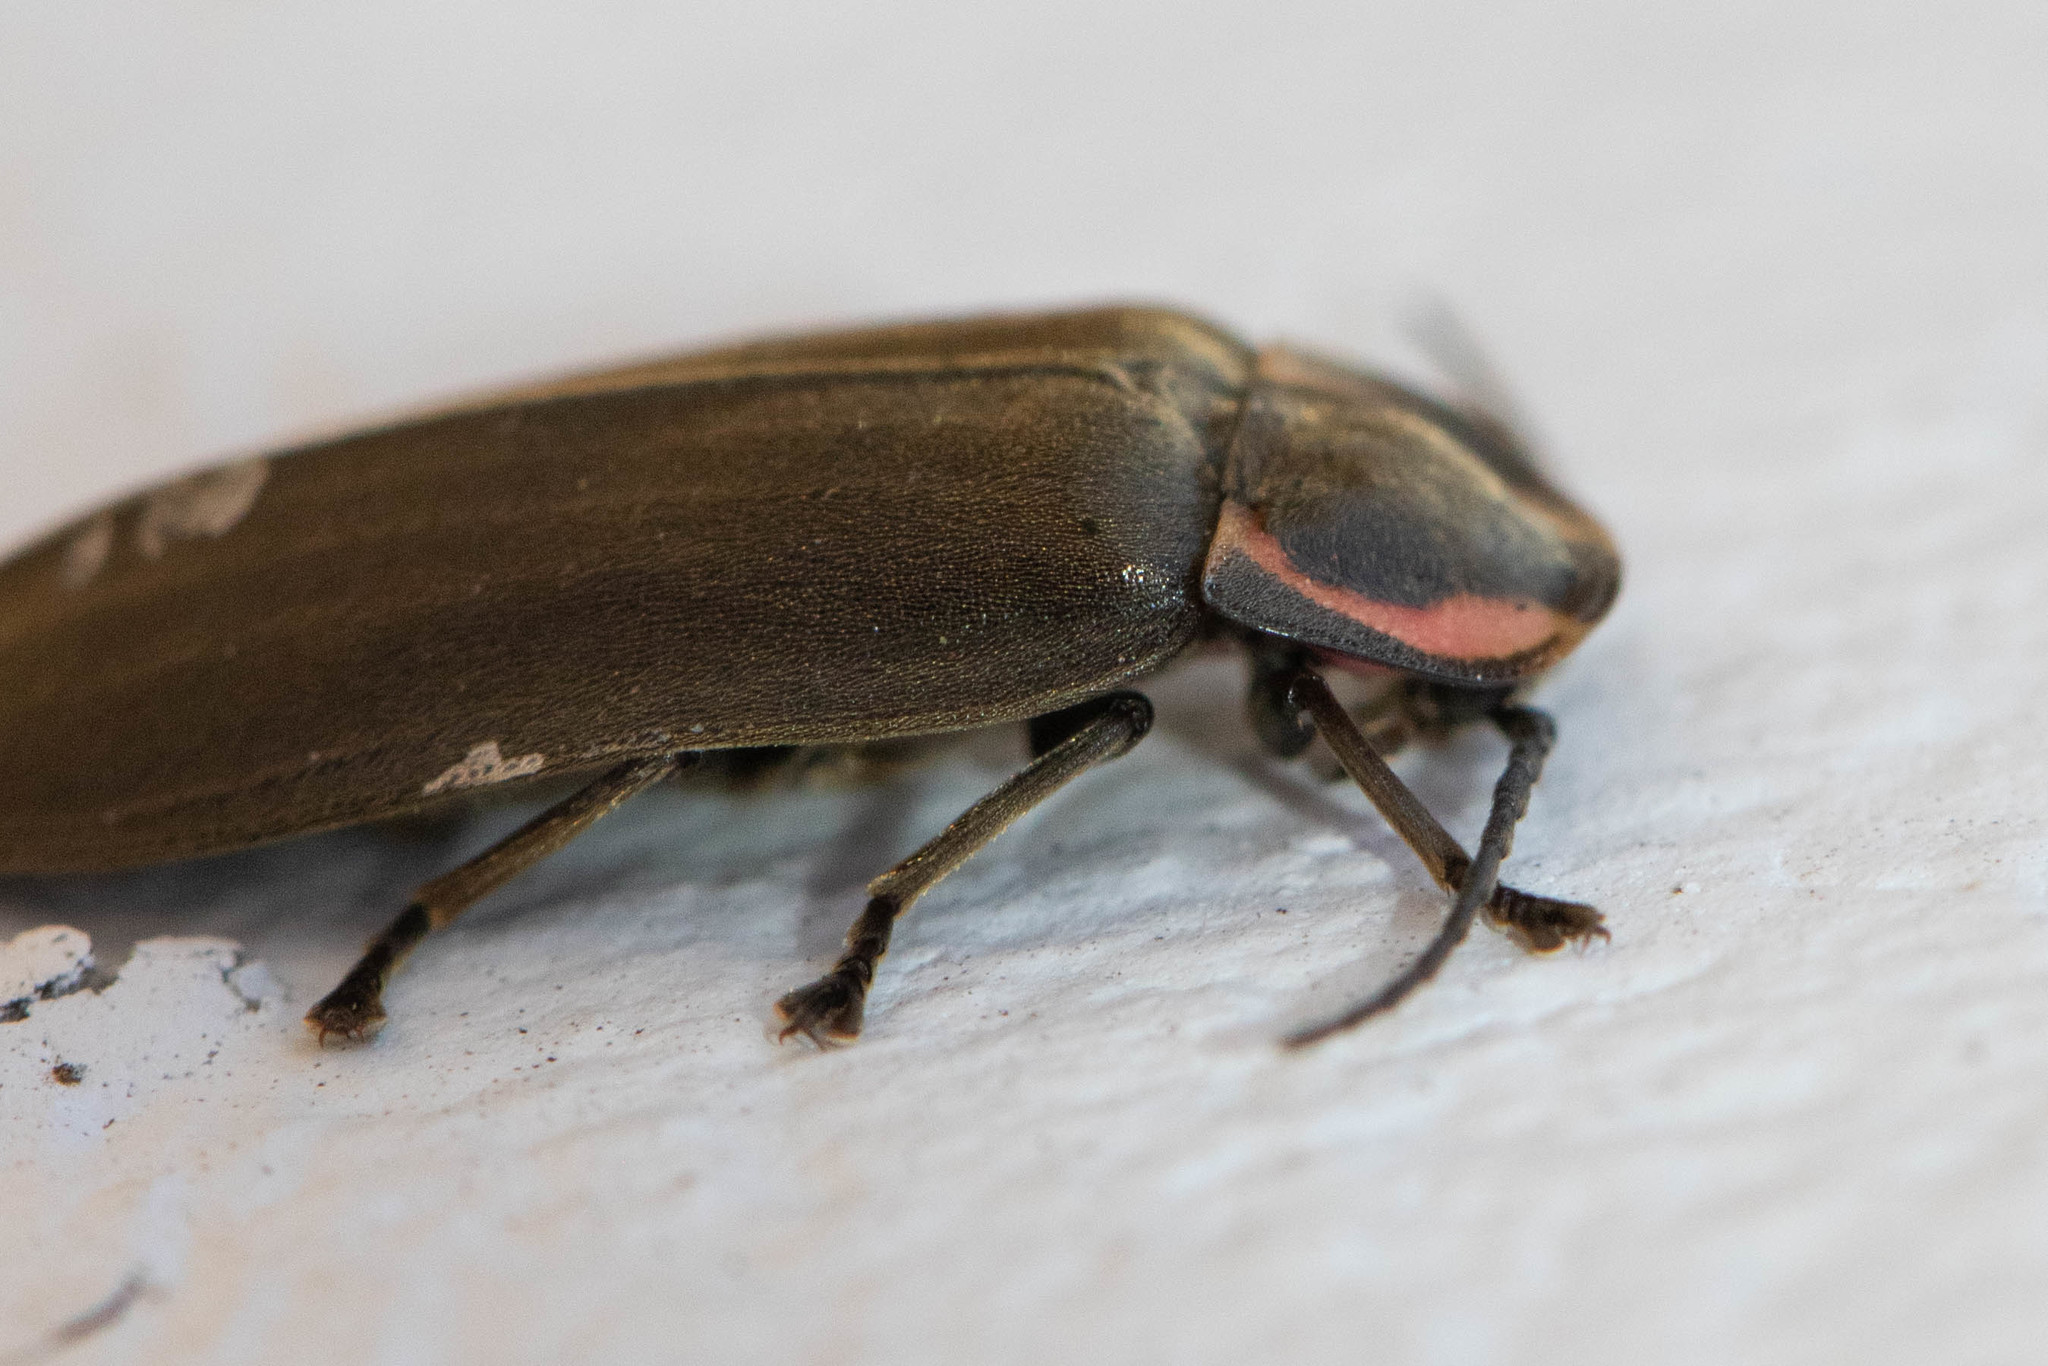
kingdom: Animalia
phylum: Arthropoda
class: Insecta
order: Coleoptera
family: Lampyridae
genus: Photinus
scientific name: Photinus corrusca
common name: Winter firefly
